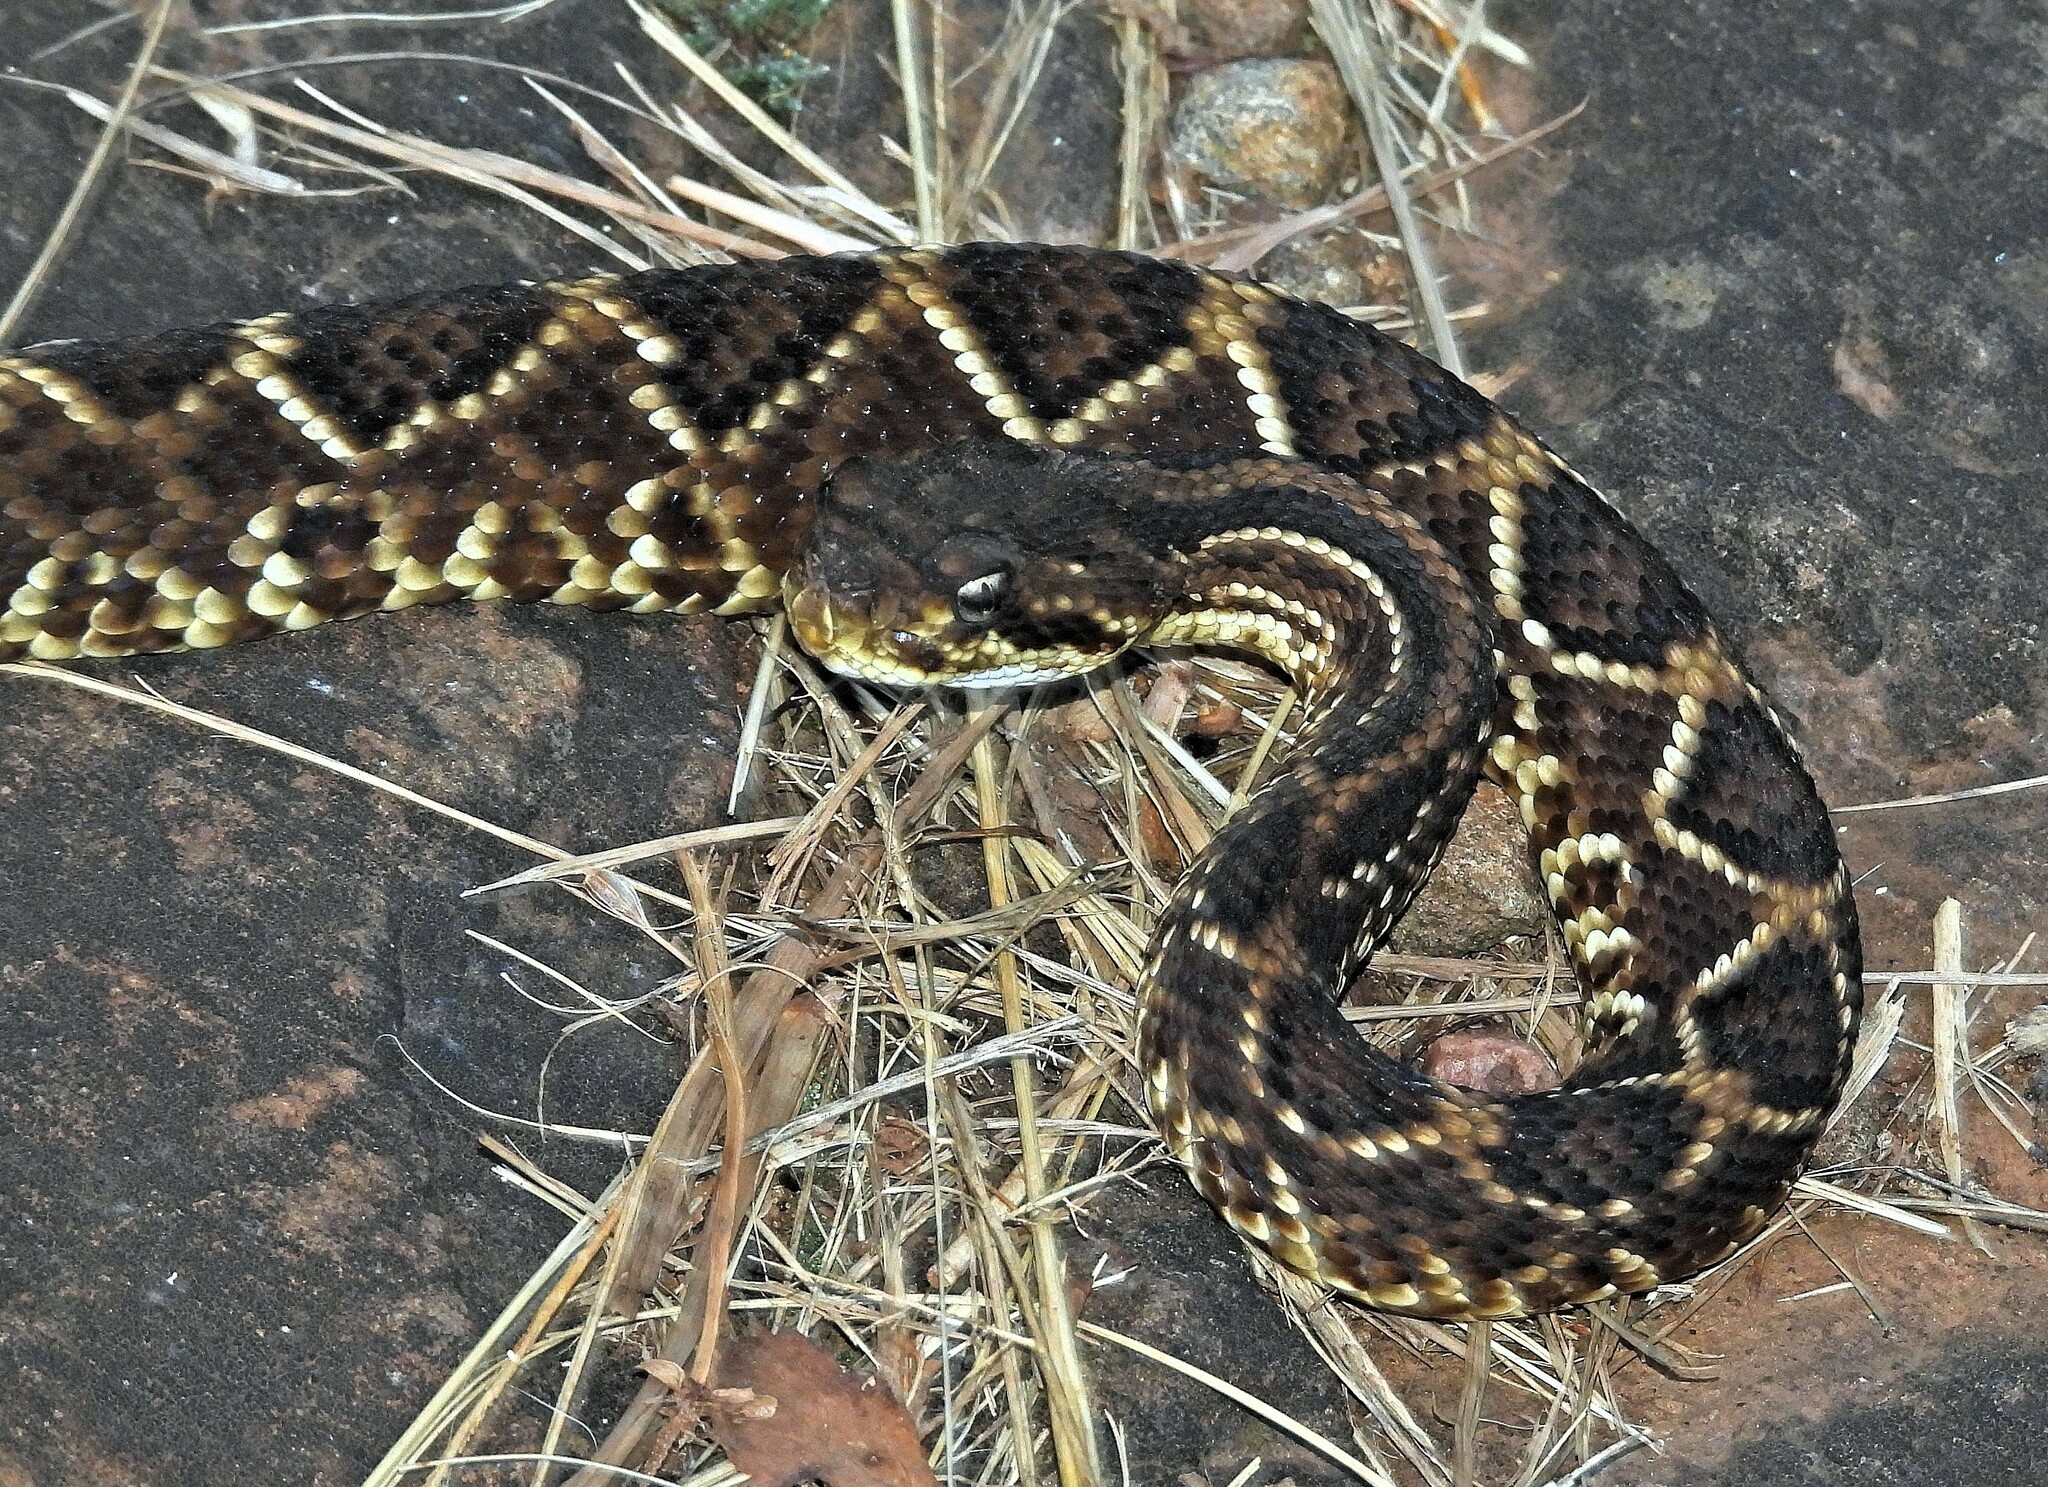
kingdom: Animalia
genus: Crotalus
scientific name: Crotalus durissus
